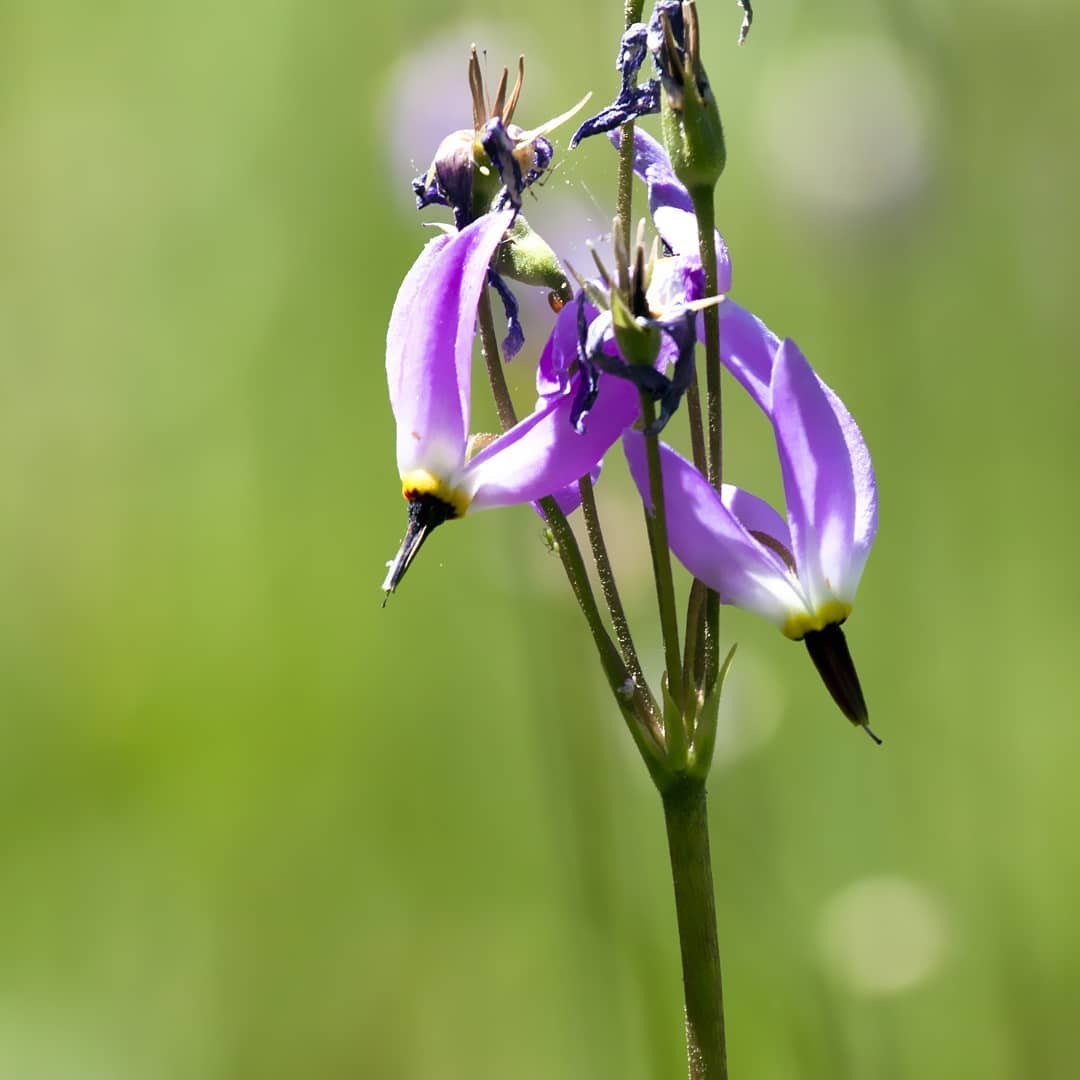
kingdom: Plantae
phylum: Tracheophyta
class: Magnoliopsida
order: Ericales
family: Primulaceae
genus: Dodecatheon
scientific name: Dodecatheon pulchellum
